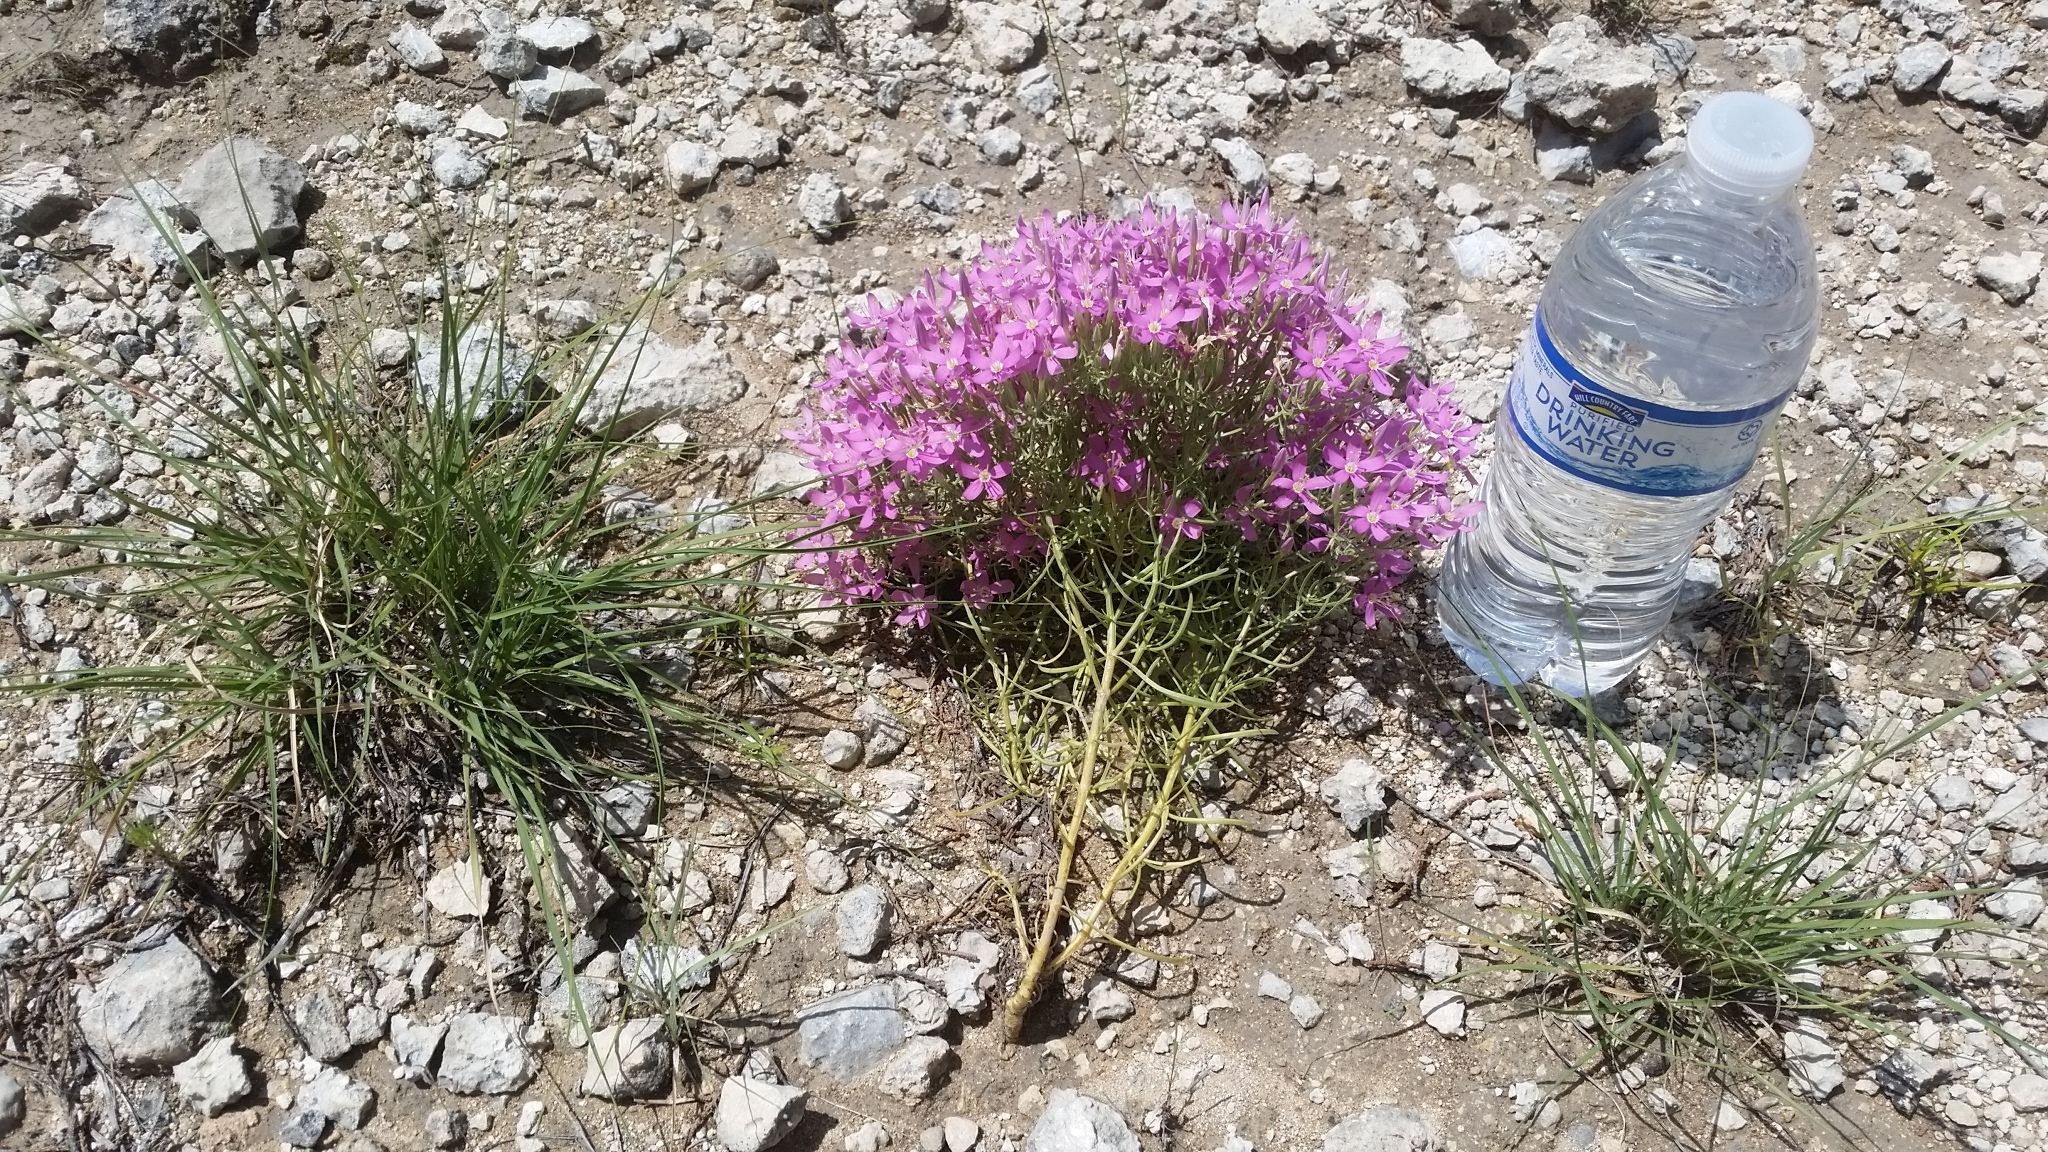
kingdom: Plantae
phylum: Tracheophyta
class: Magnoliopsida
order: Gentianales
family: Gentianaceae
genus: Zeltnera
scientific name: Zeltnera beyrichii
